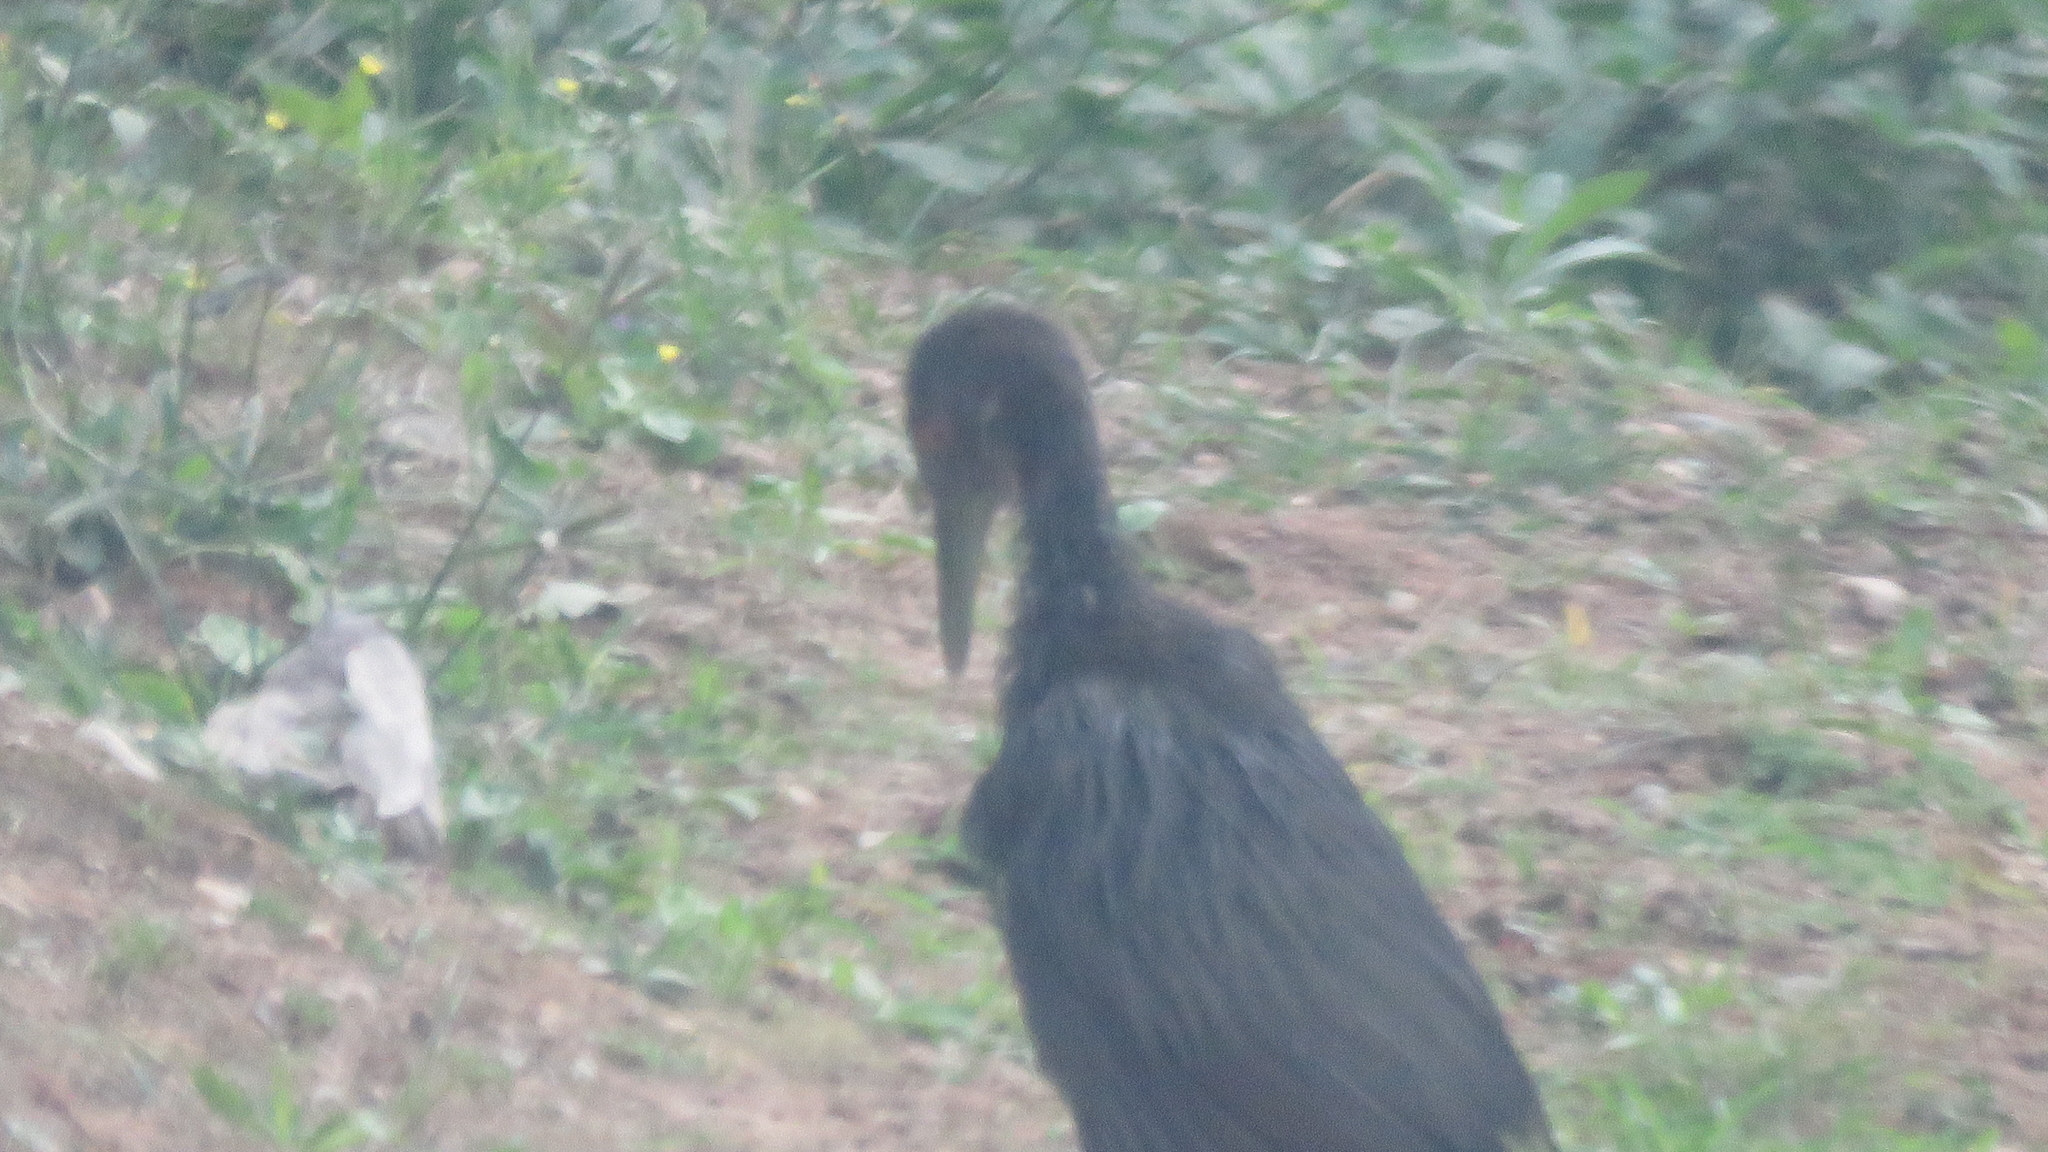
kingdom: Animalia
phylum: Chordata
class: Aves
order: Gruiformes
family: Aramidae
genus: Aramus
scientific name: Aramus guarauna
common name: Limpkin
